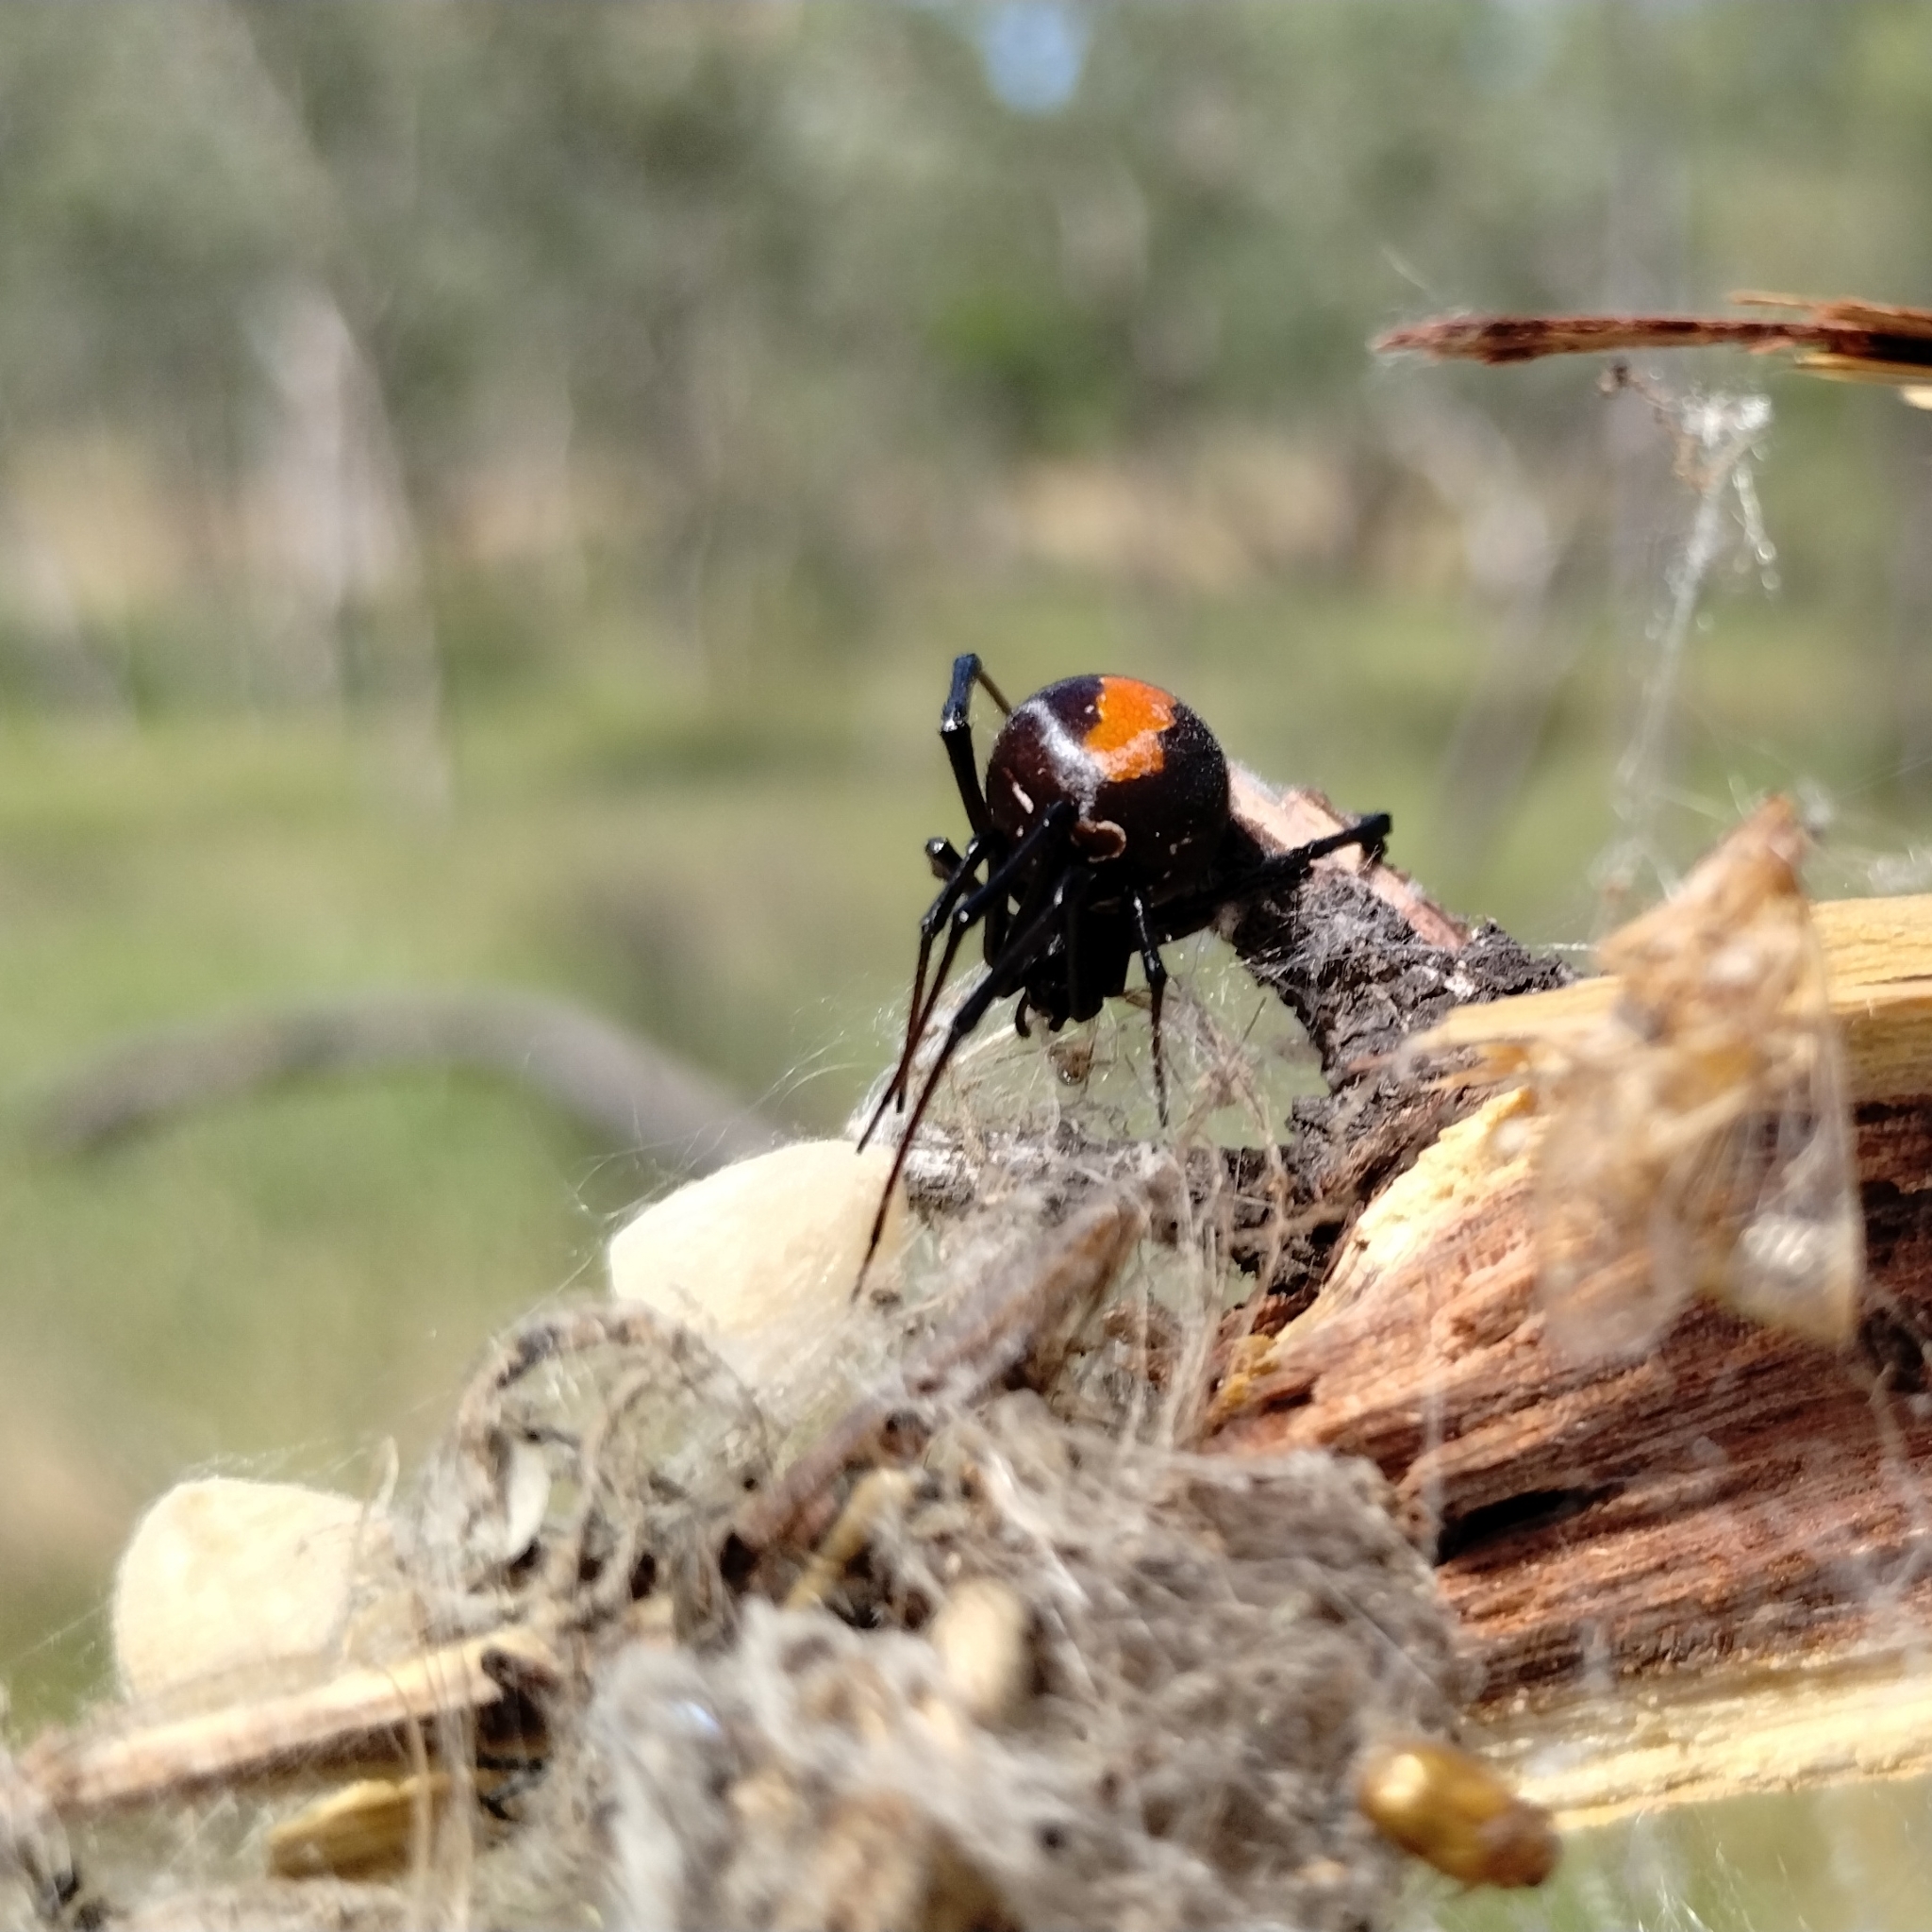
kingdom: Animalia
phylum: Arthropoda
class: Arachnida
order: Araneae
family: Theridiidae
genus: Latrodectus
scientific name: Latrodectus hasselti
